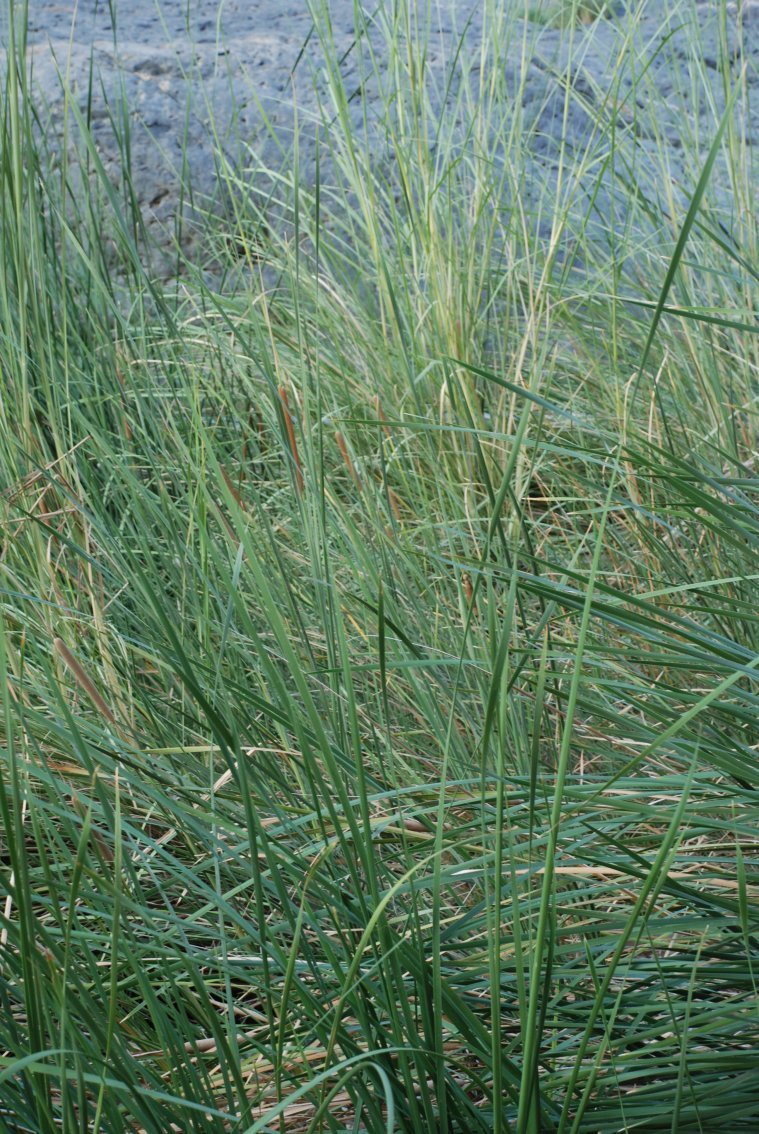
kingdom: Plantae
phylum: Tracheophyta
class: Liliopsida
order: Poales
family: Typhaceae
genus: Typha
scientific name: Typha domingensis
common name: Southern cattail
